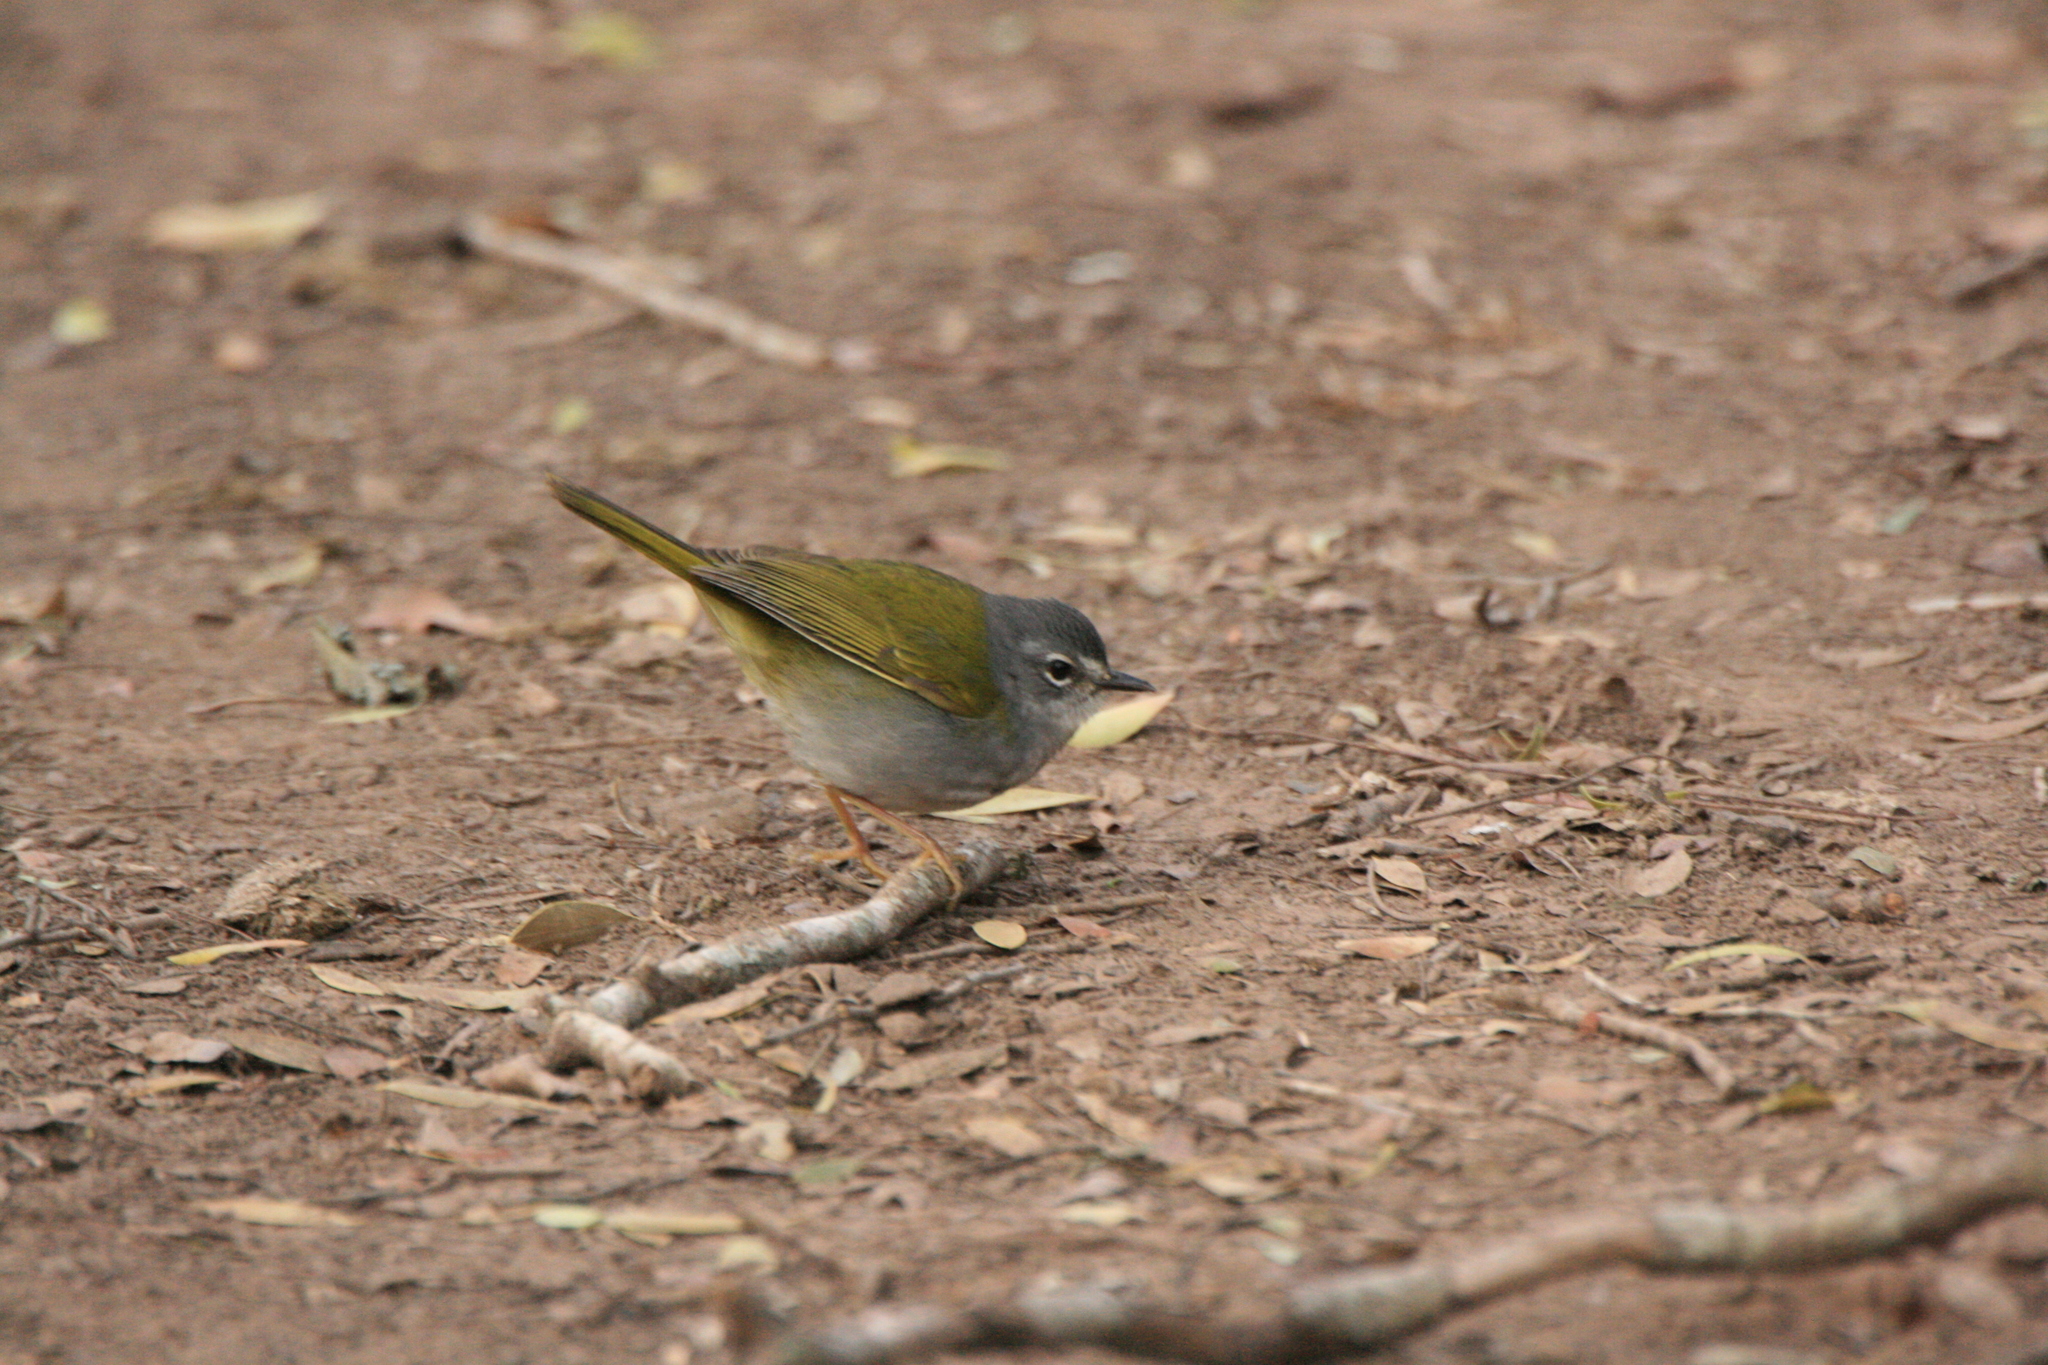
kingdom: Animalia
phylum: Chordata
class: Aves
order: Passeriformes
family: Parulidae
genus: Myiothlypis
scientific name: Myiothlypis leucoblephara
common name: White-rimmed warbler
